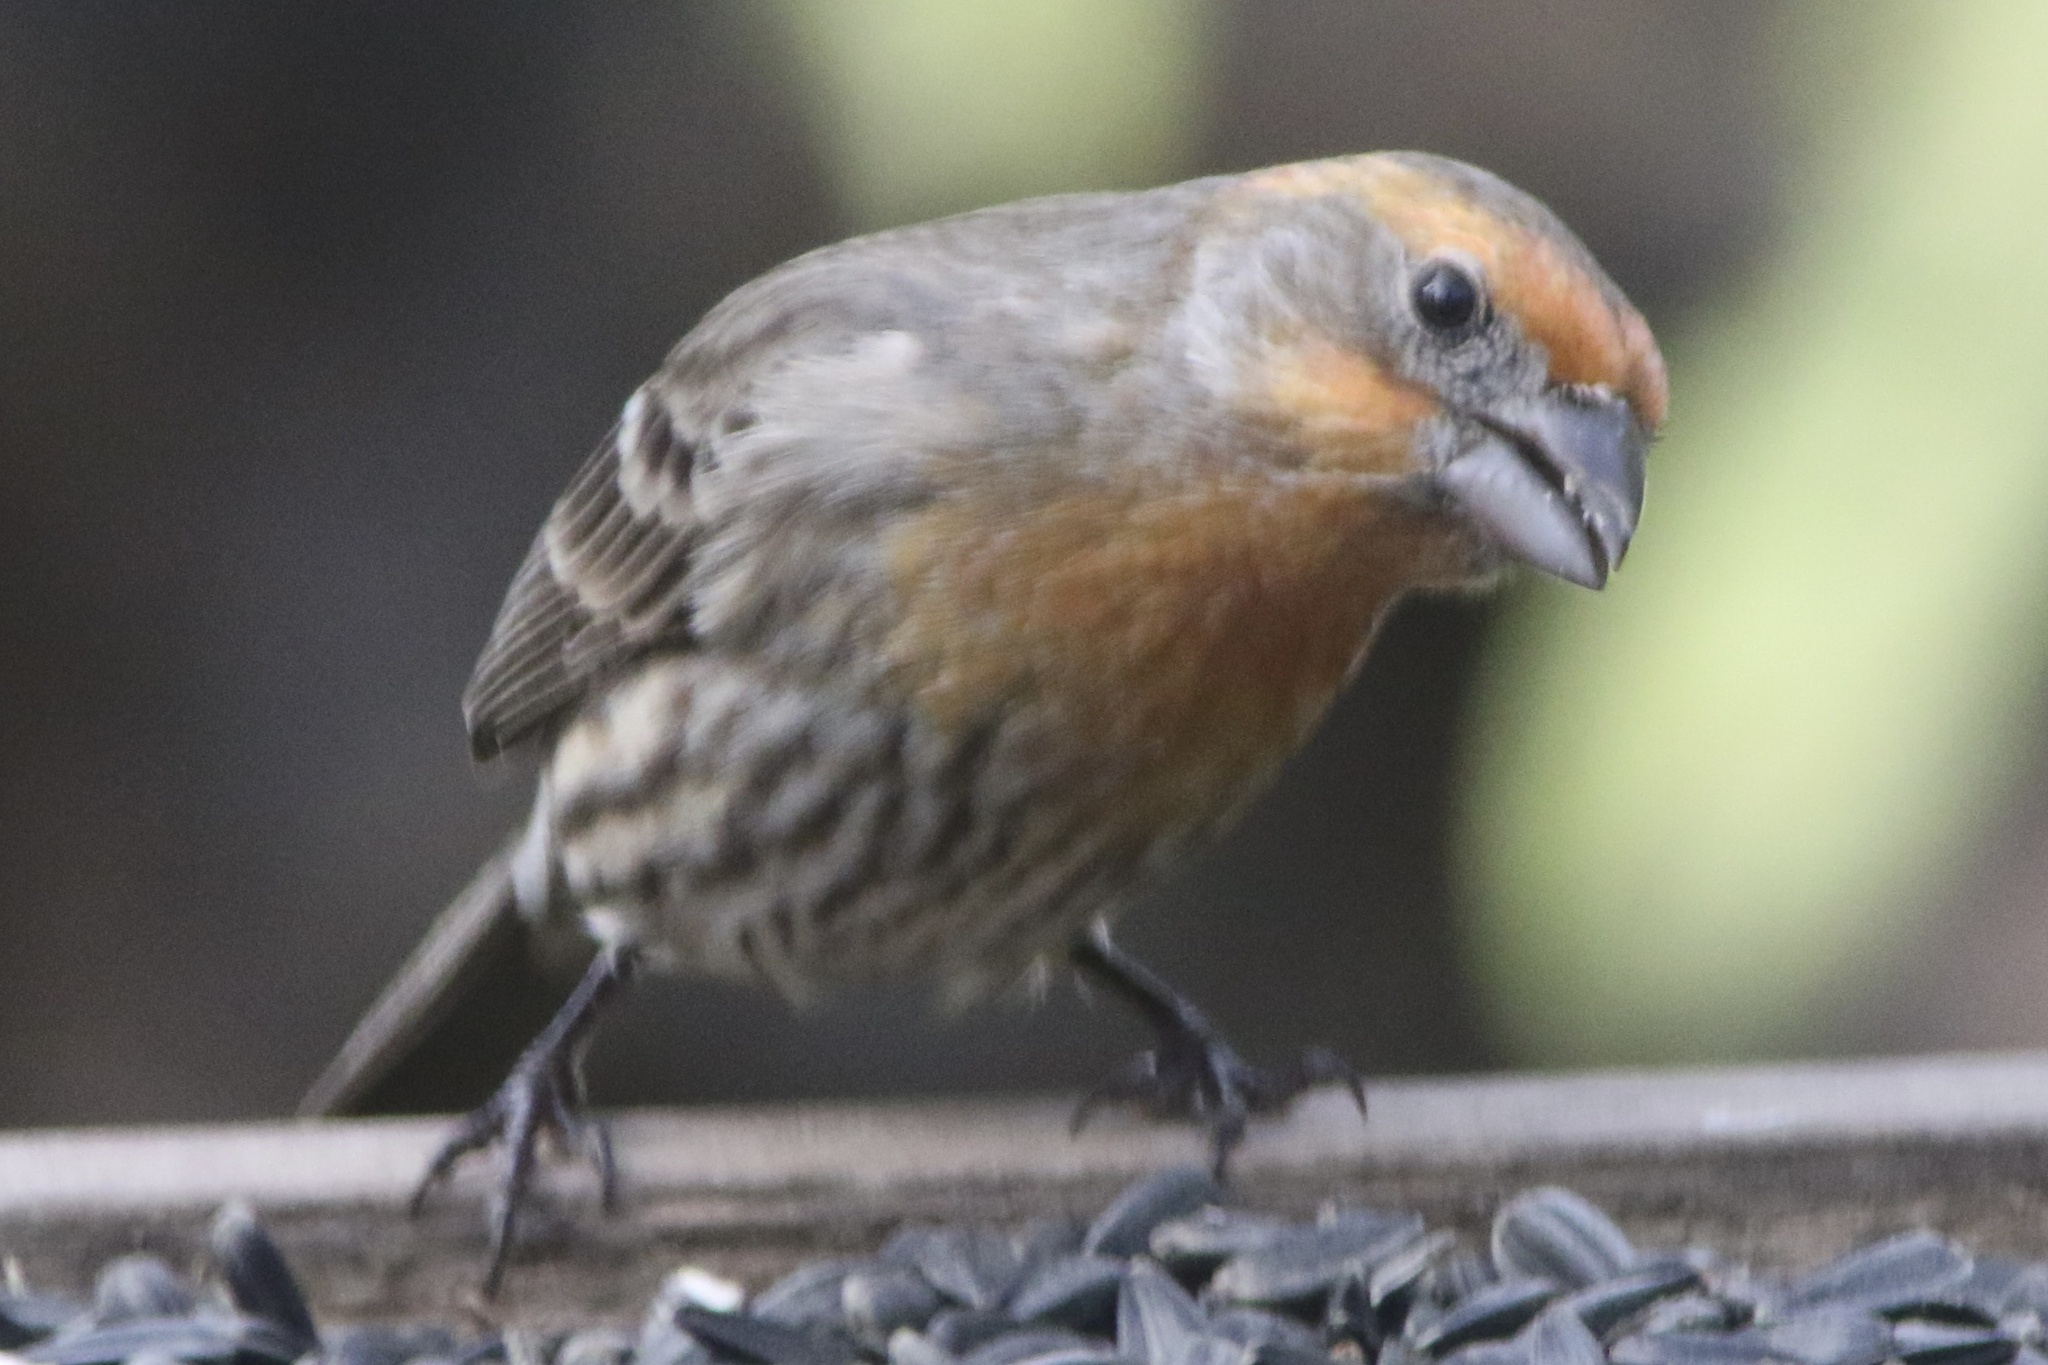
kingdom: Animalia
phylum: Chordata
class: Aves
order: Passeriformes
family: Fringillidae
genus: Haemorhous
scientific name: Haemorhous mexicanus
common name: House finch
